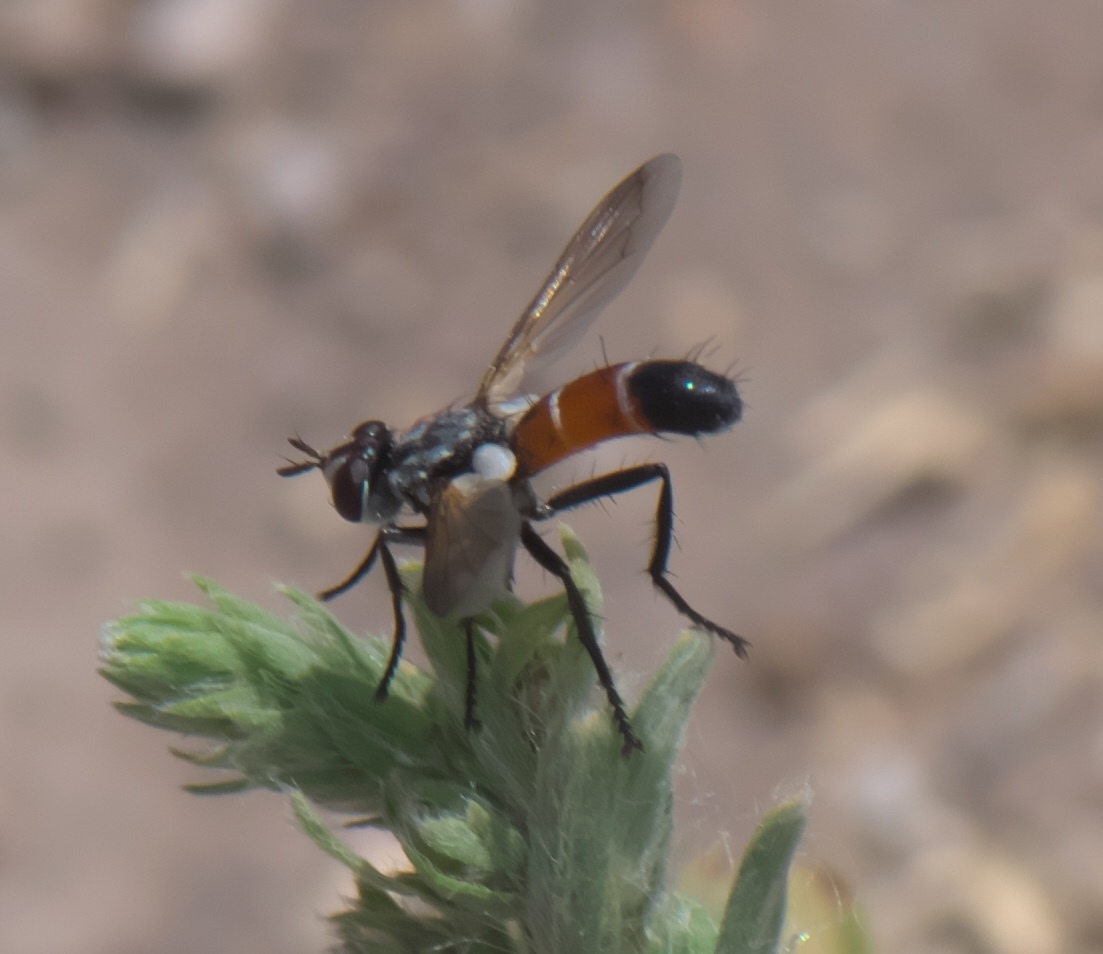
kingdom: Animalia
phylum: Arthropoda
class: Insecta
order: Diptera
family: Tachinidae
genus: Cylindromyia
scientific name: Cylindromyia intermedia
